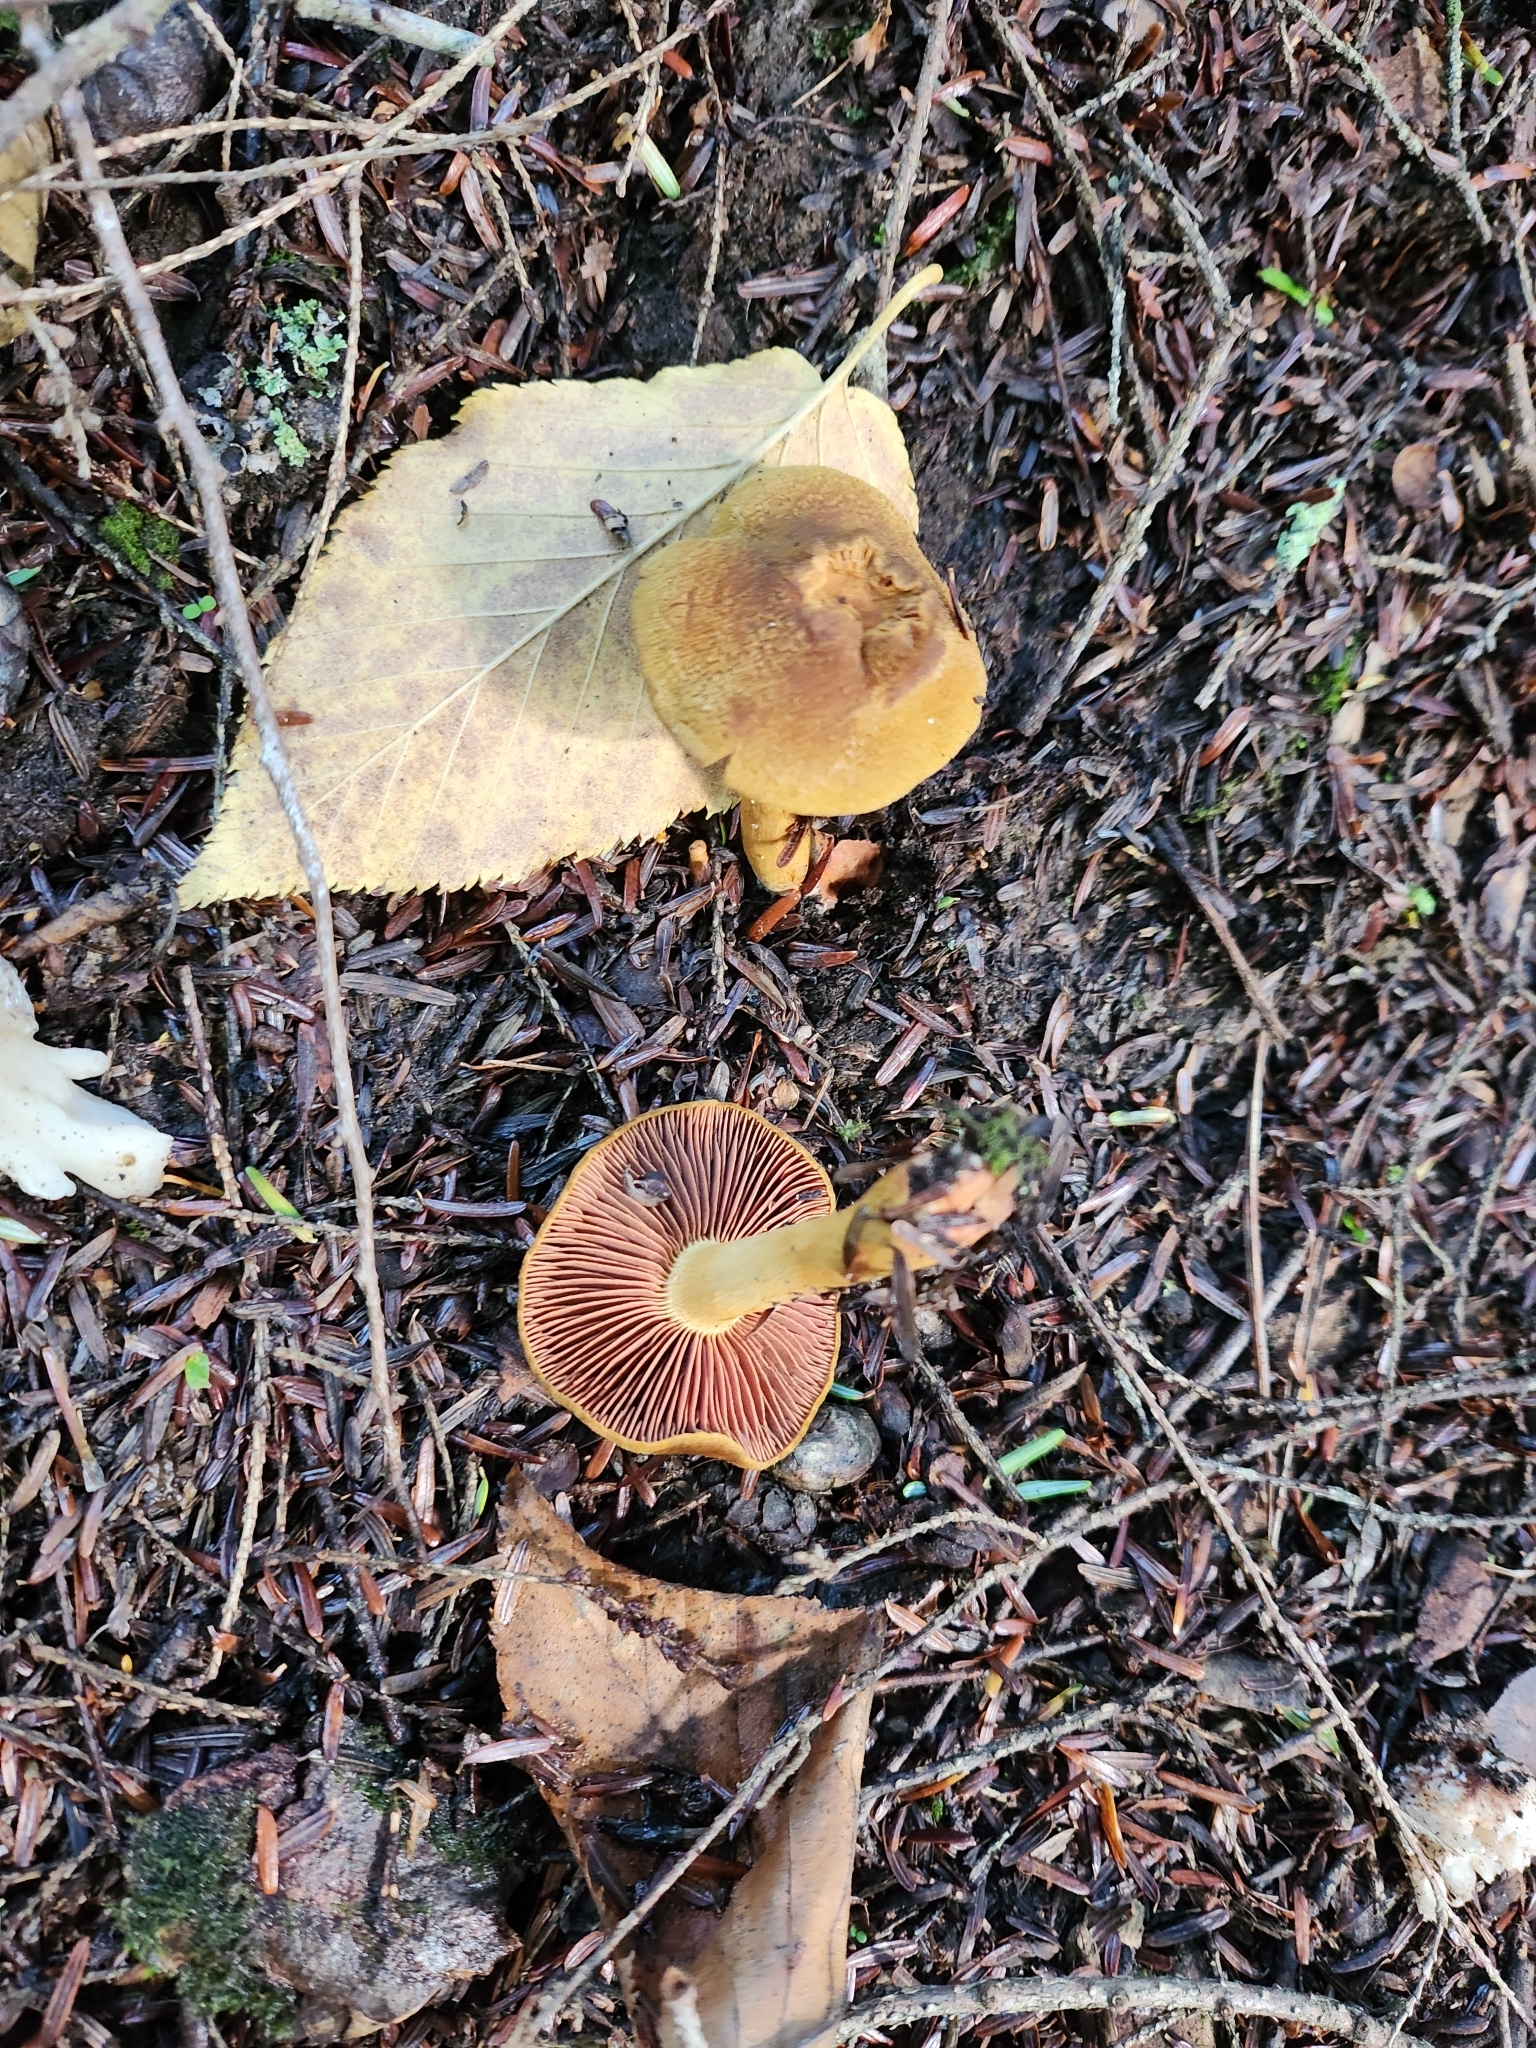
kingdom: Fungi
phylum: Basidiomycota
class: Agaricomycetes
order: Agaricales
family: Cortinariaceae
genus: Cortinarius
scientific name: Cortinarius semisanguineus
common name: Surprise webcap
